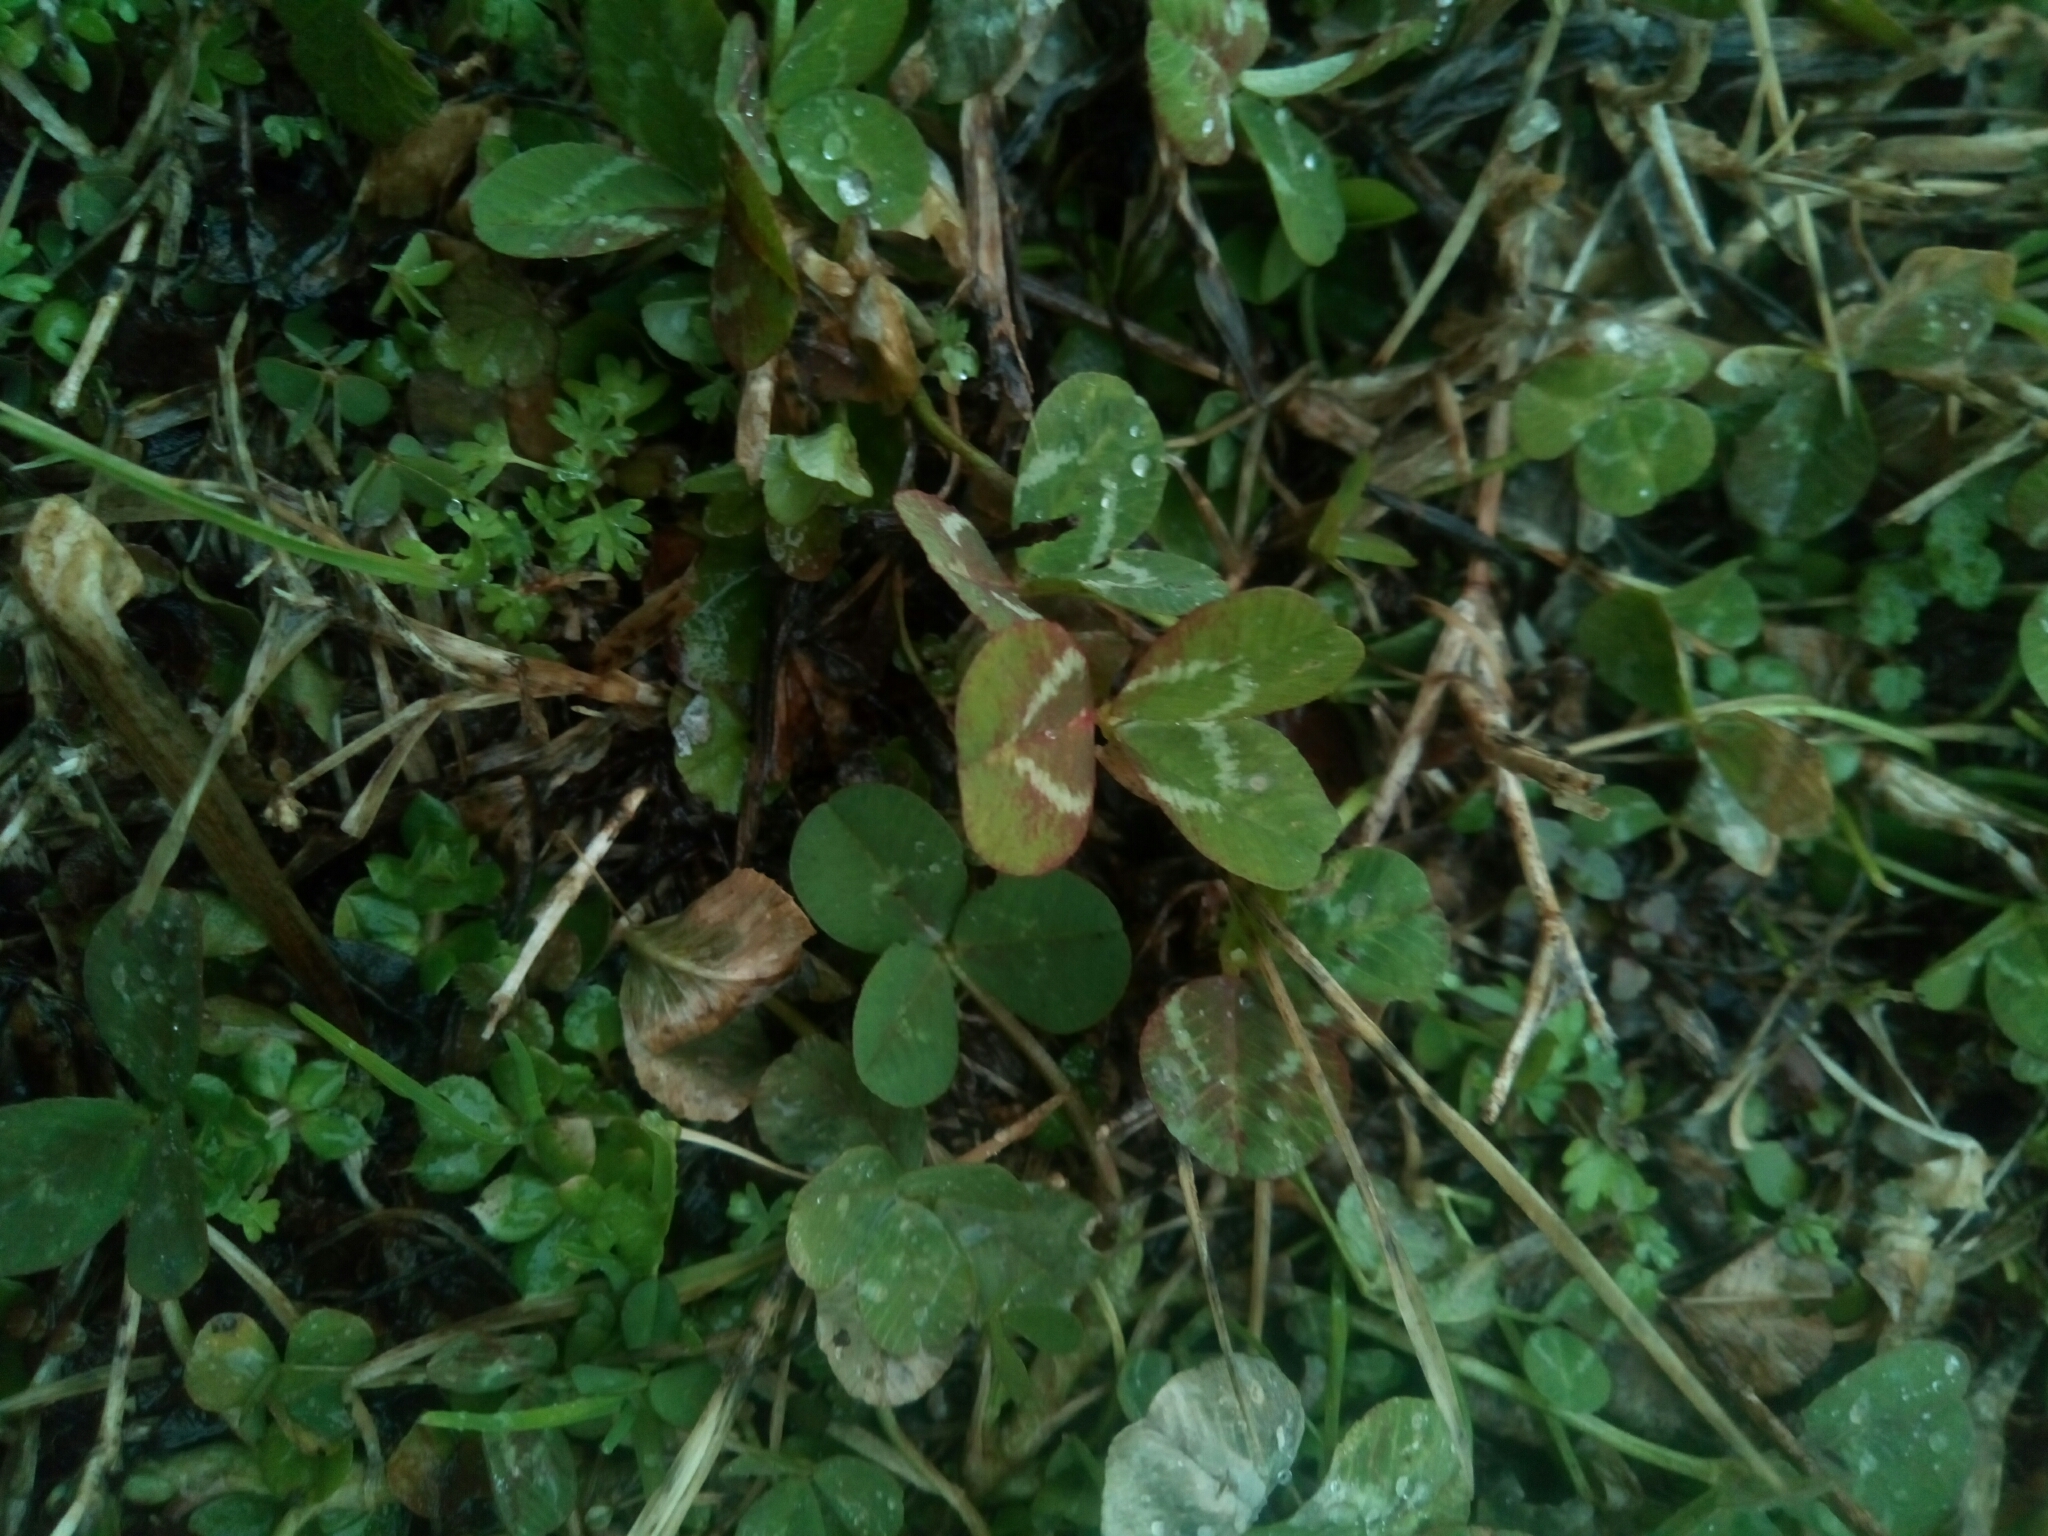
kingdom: Plantae
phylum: Tracheophyta
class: Magnoliopsida
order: Fabales
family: Fabaceae
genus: Trifolium
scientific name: Trifolium repens
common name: White clover
